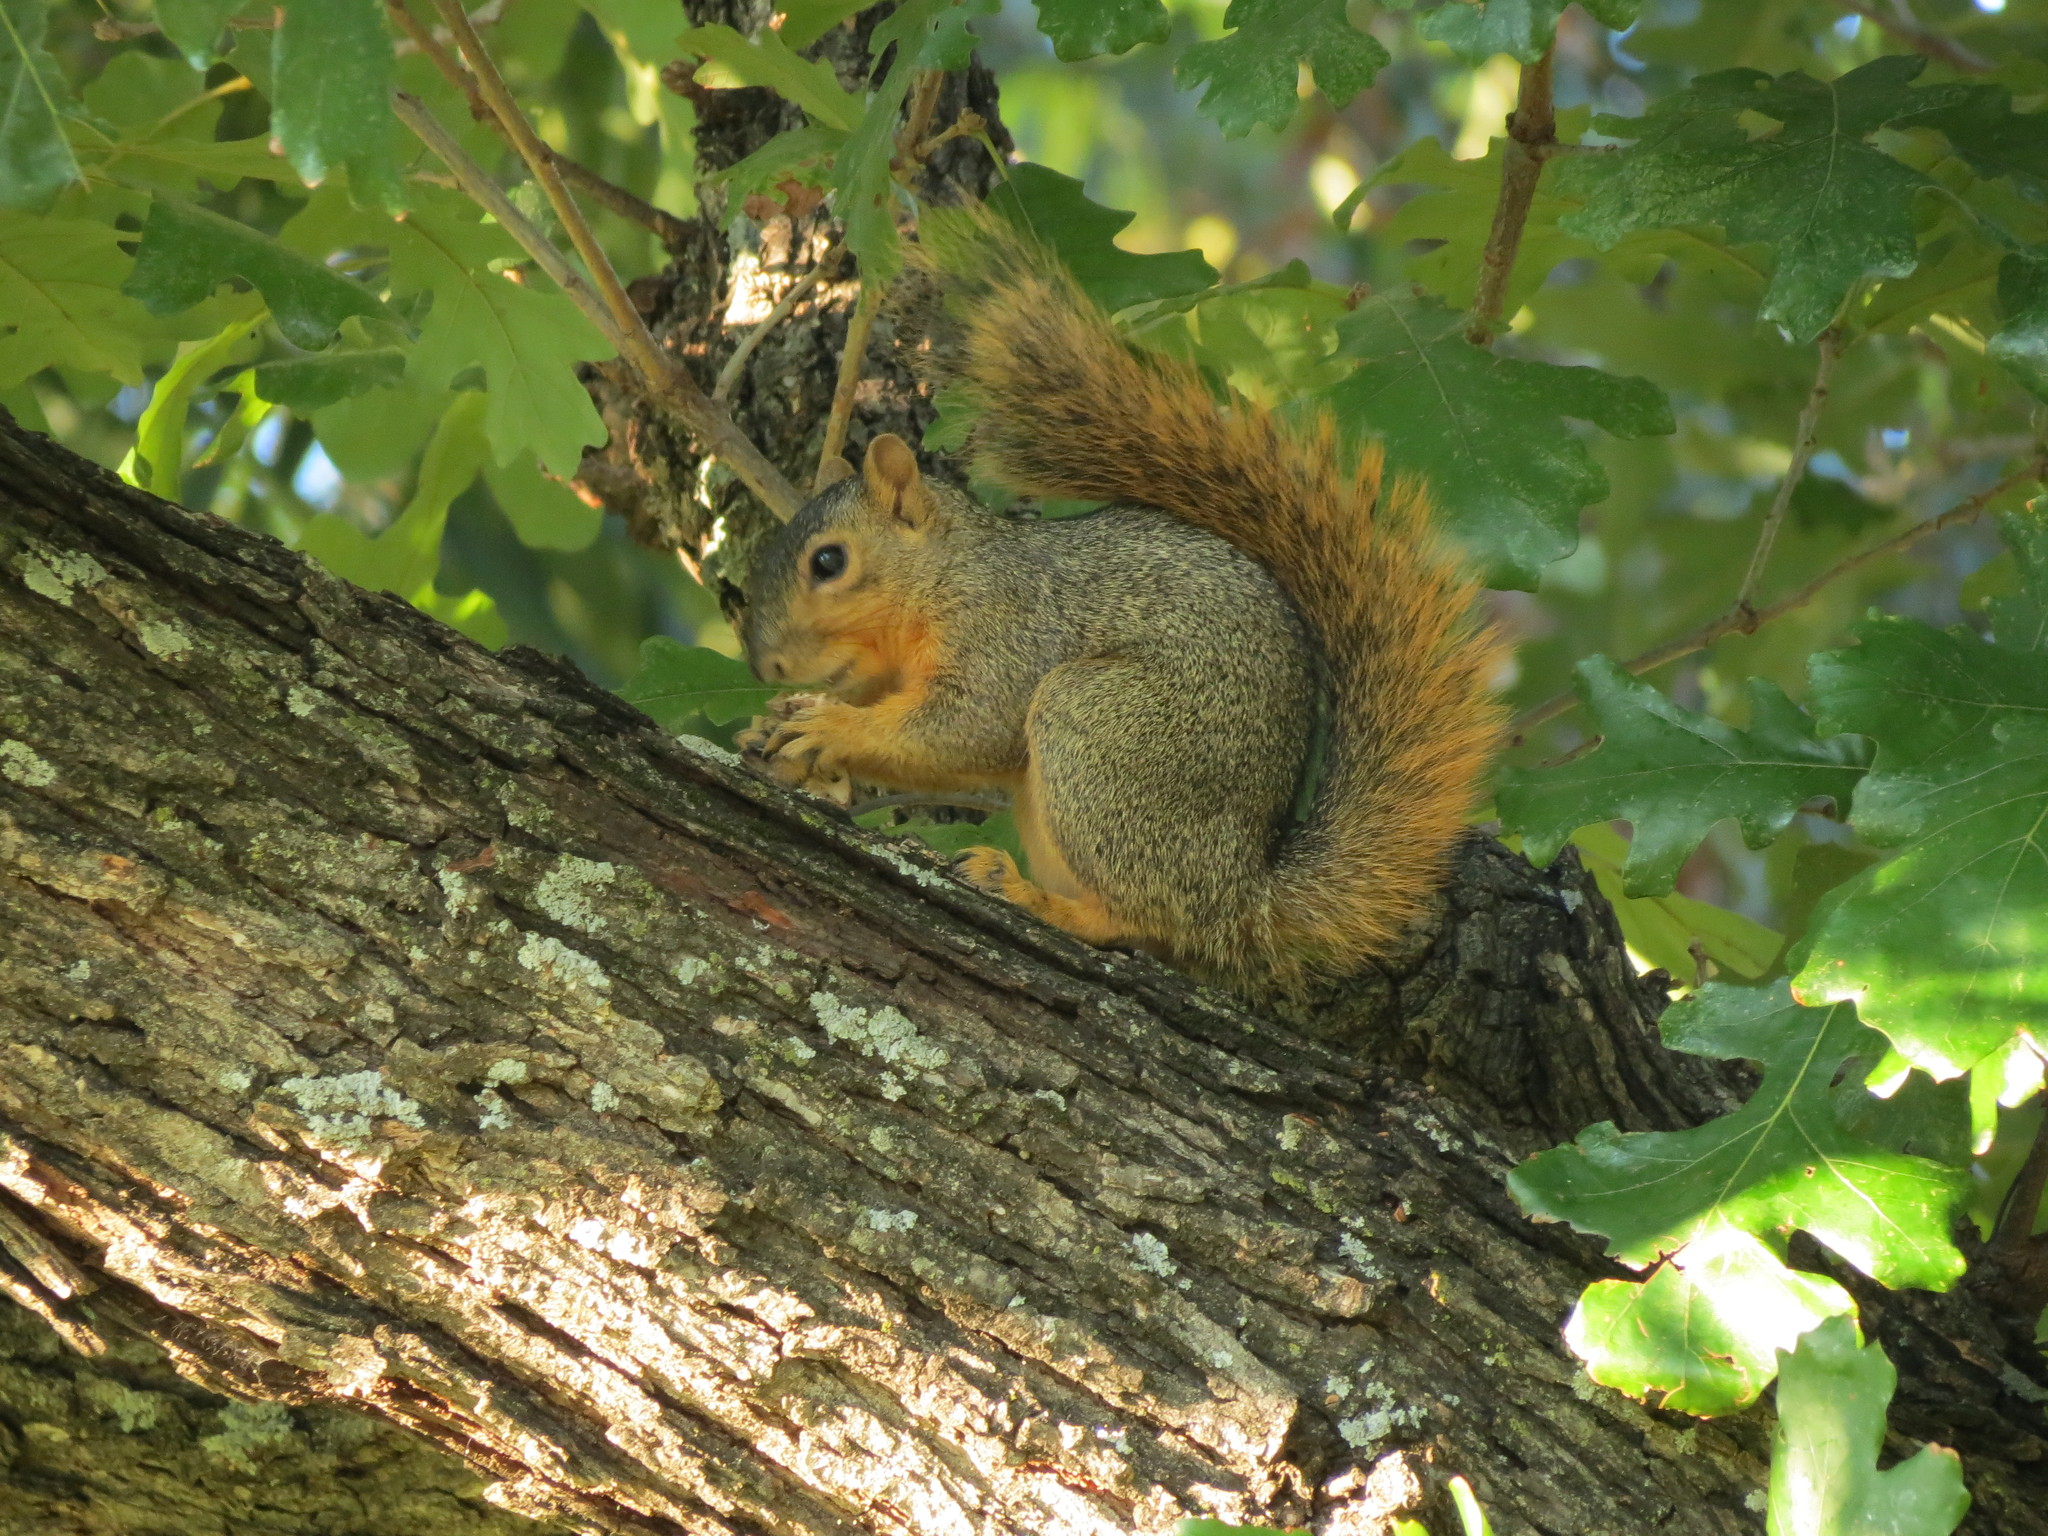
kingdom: Animalia
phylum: Chordata
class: Mammalia
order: Rodentia
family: Sciuridae
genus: Sciurus
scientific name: Sciurus niger
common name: Fox squirrel
